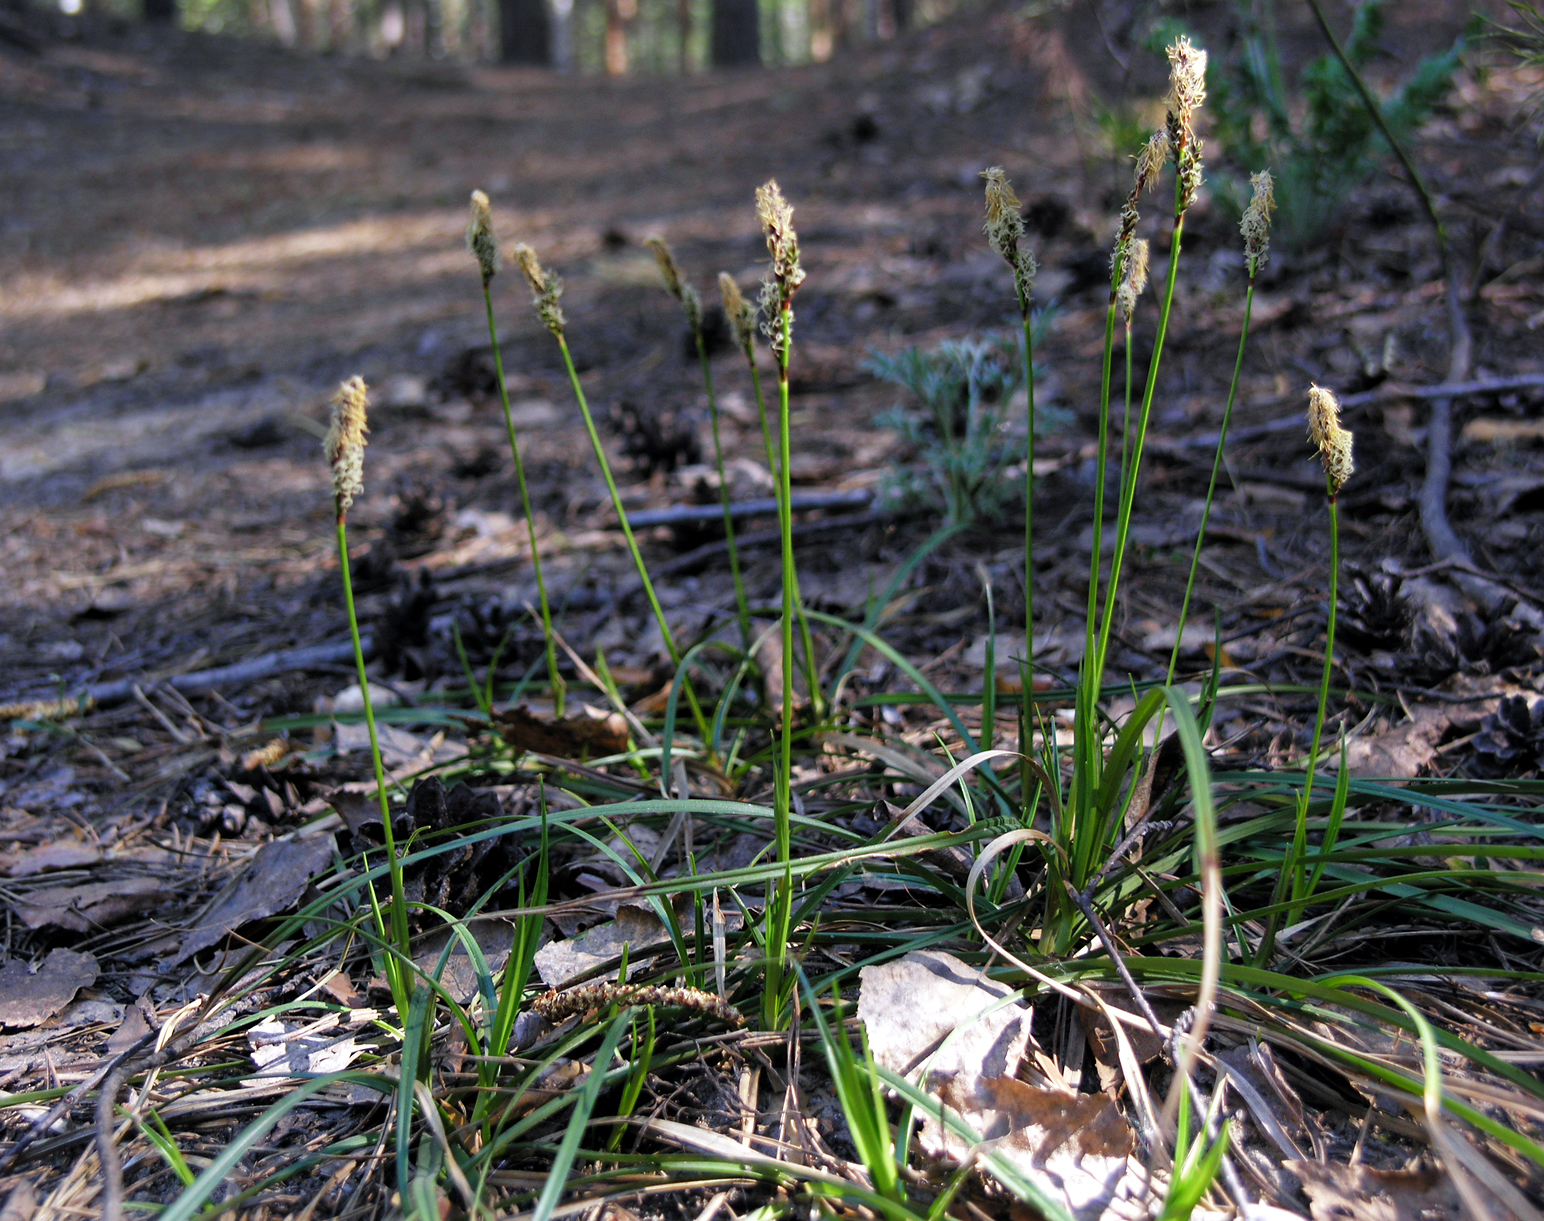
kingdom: Plantae
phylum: Tracheophyta
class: Liliopsida
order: Poales
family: Cyperaceae
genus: Carex
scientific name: Carex ericetorum
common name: Rare spring-sedge
